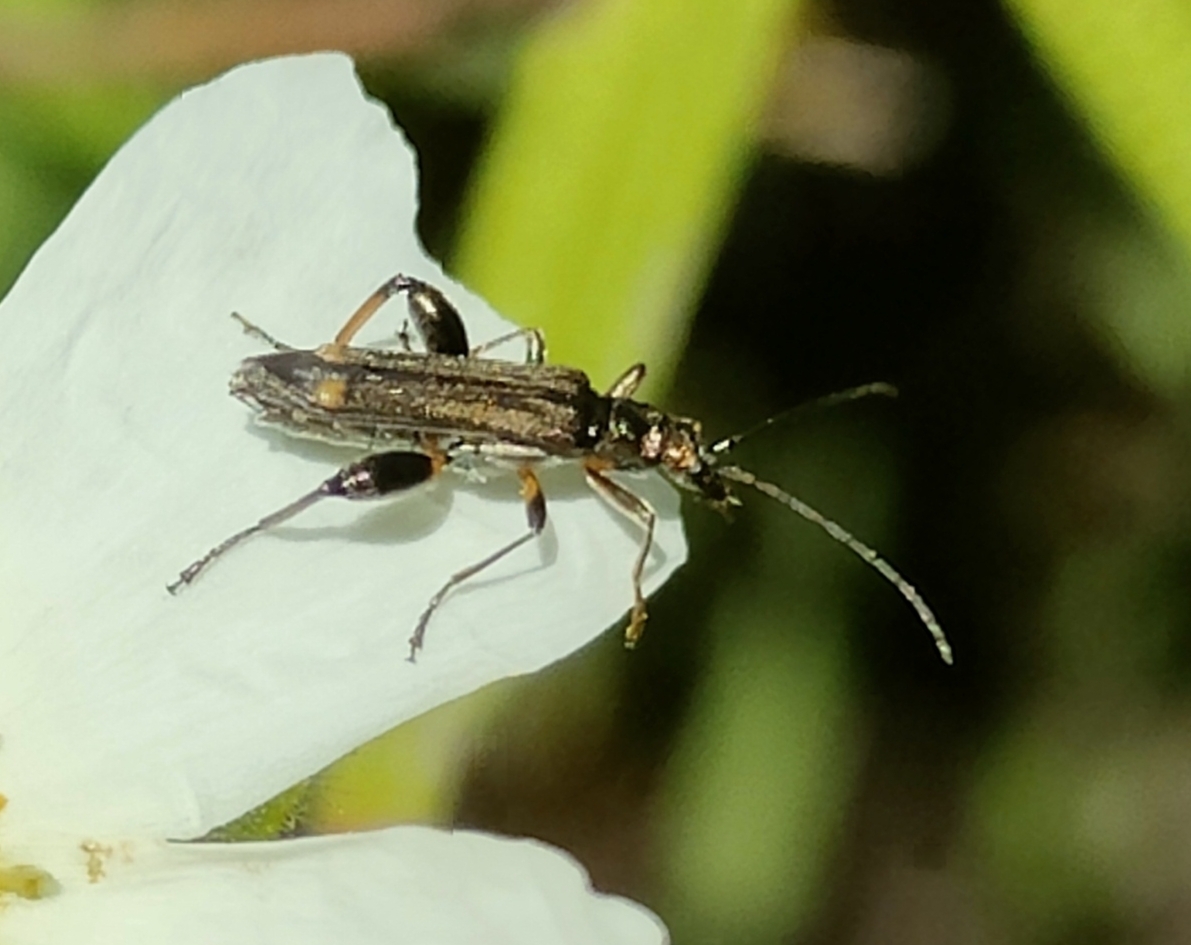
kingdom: Animalia
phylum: Arthropoda
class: Insecta
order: Coleoptera
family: Oedemeridae
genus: Oedemera
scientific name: Oedemera barbara
